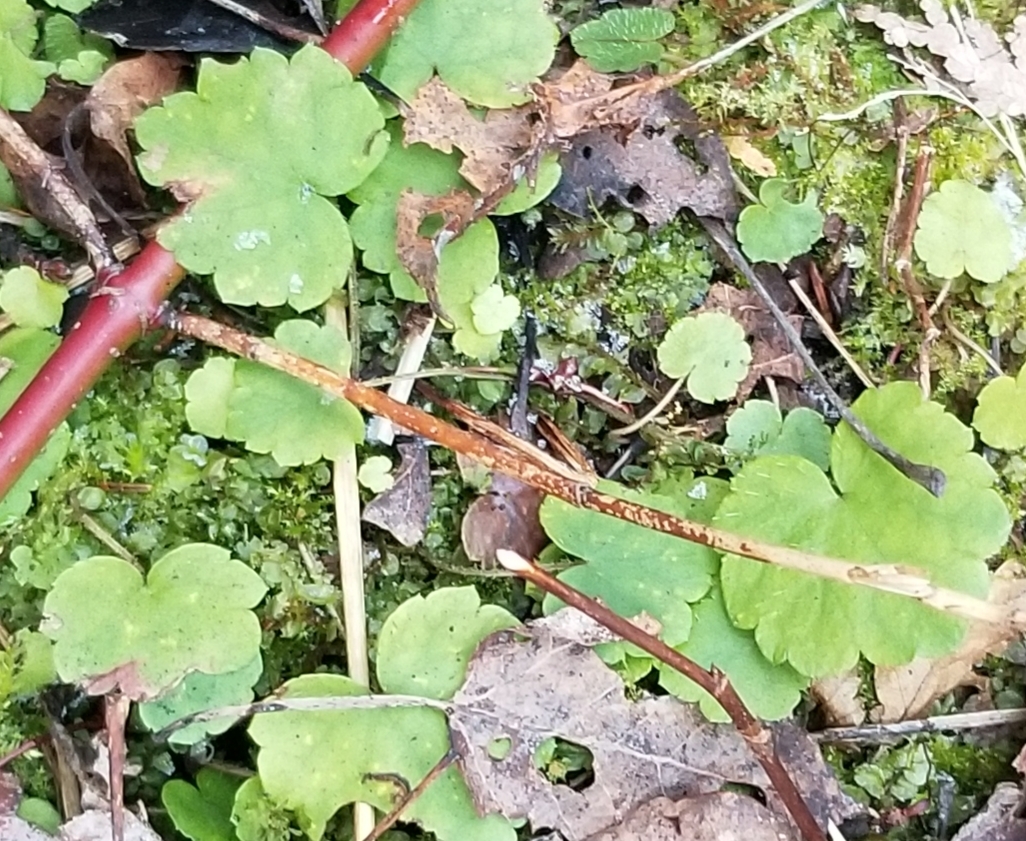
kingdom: Plantae
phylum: Tracheophyta
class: Magnoliopsida
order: Saxifragales
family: Saxifragaceae
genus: Mitella
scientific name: Mitella nuda
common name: Bare-stemmed bishop's-cap
